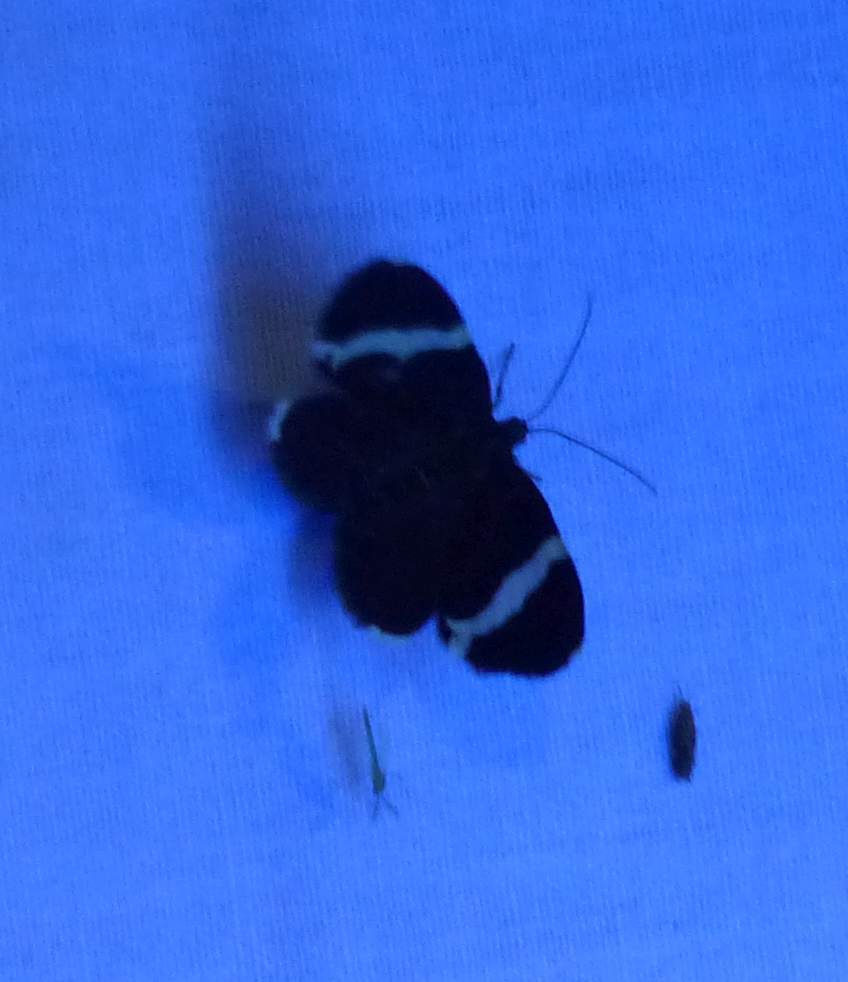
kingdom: Animalia
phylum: Arthropoda
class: Insecta
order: Lepidoptera
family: Geometridae
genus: Trichodezia
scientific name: Trichodezia albovittata
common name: White striped black
